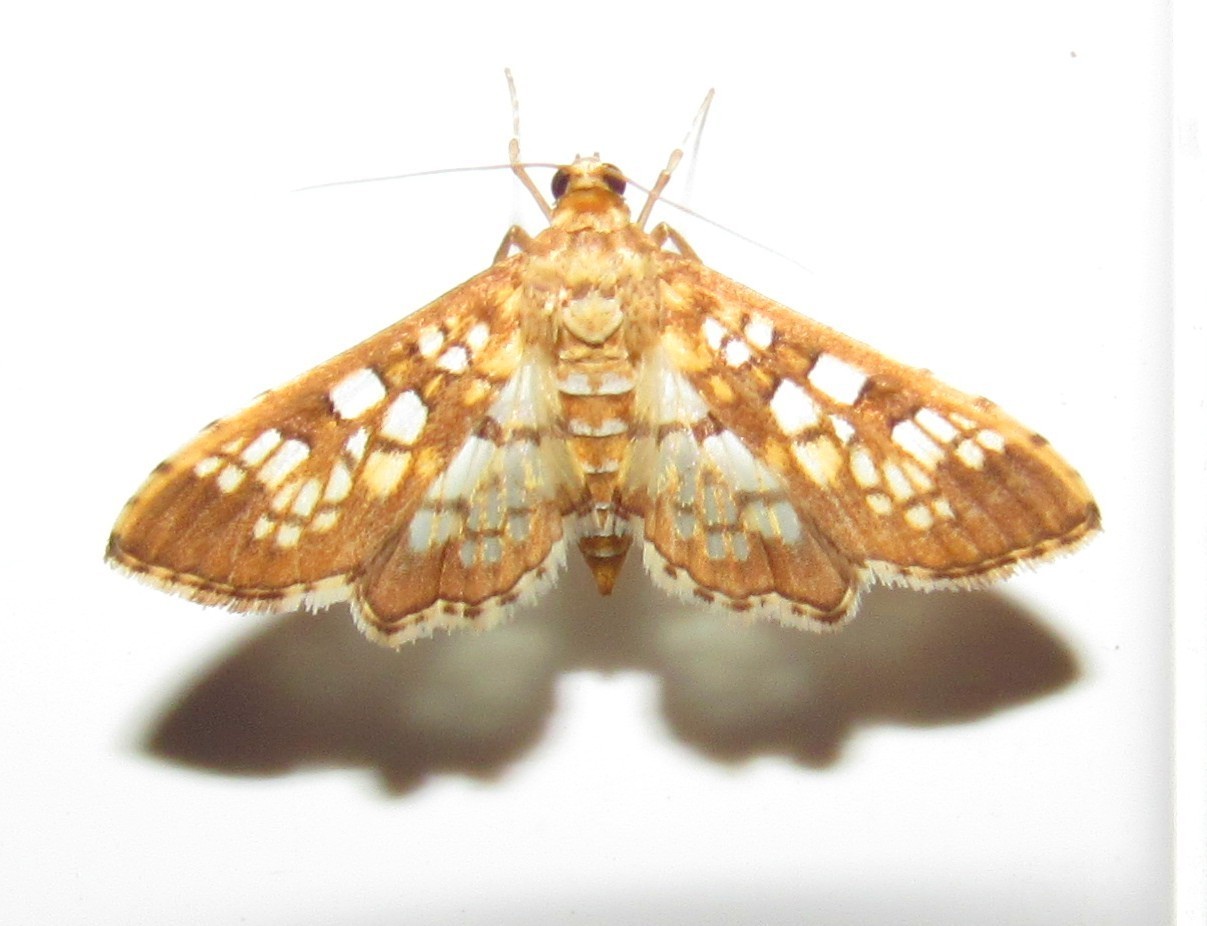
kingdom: Animalia
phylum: Arthropoda
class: Insecta
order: Lepidoptera
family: Crambidae
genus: Samea
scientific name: Samea ecclesialis
